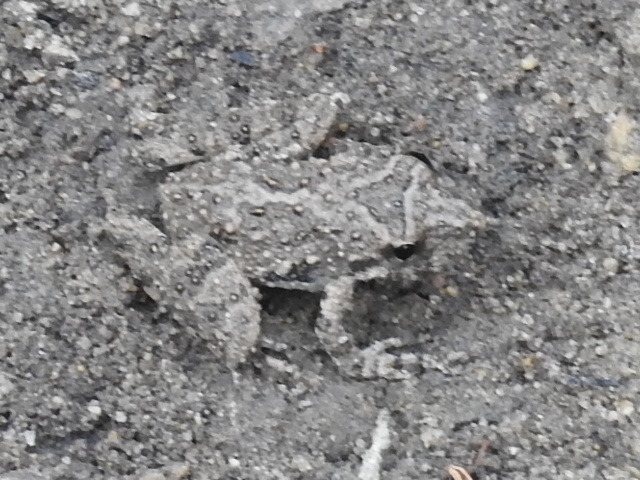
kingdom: Animalia
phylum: Chordata
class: Amphibia
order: Anura
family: Hylidae
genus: Acris
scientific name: Acris blanchardi
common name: Blanchard's cricket frog
